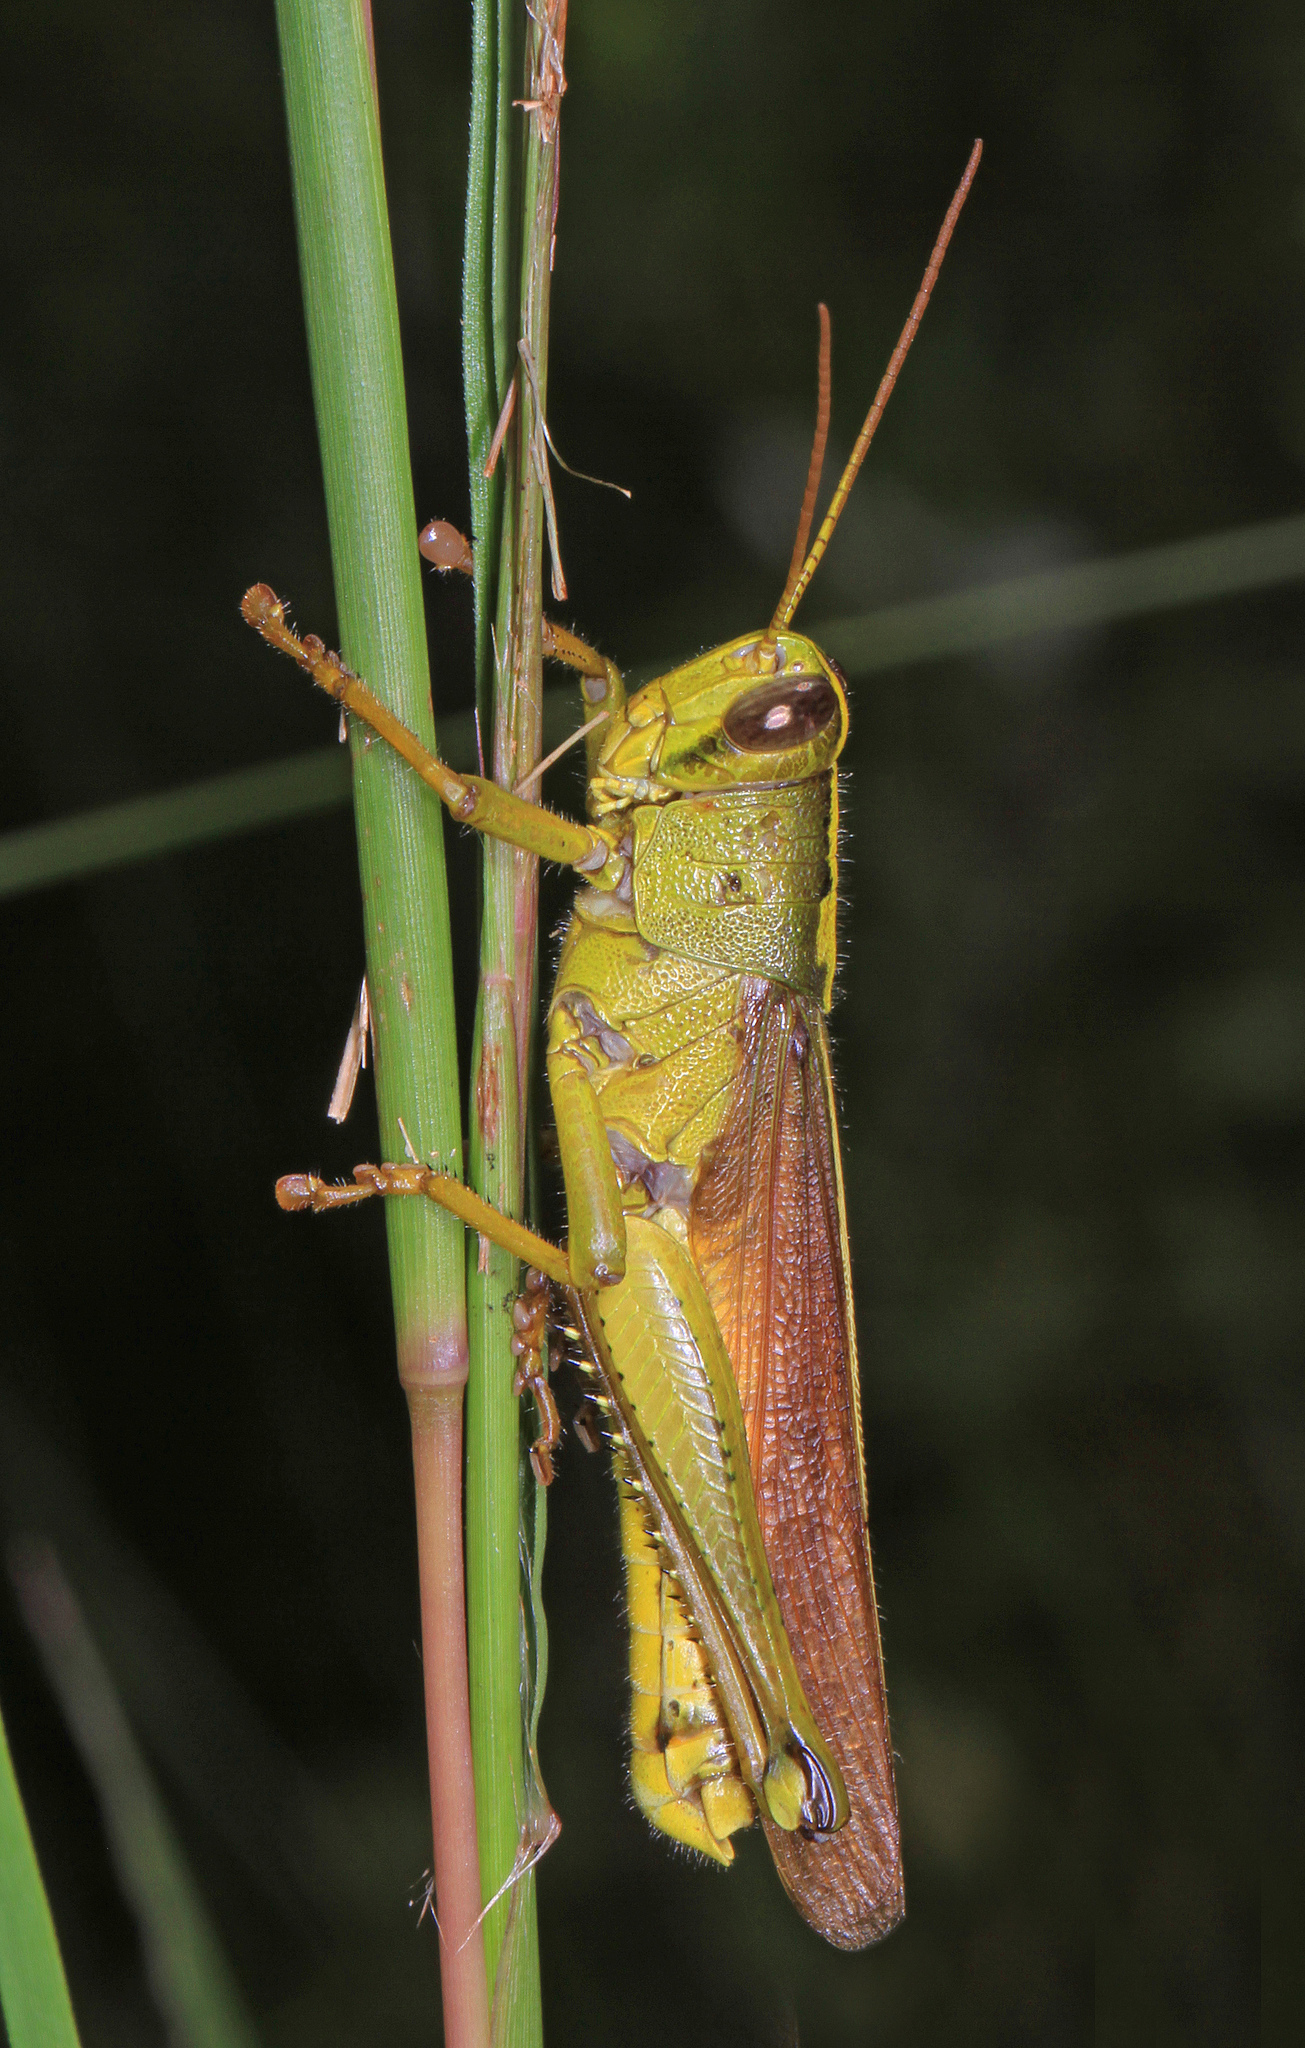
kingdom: Animalia
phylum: Arthropoda
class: Insecta
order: Orthoptera
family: Acrididae
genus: Schistocerca
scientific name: Schistocerca alutacea
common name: Leather-colored bird locust
